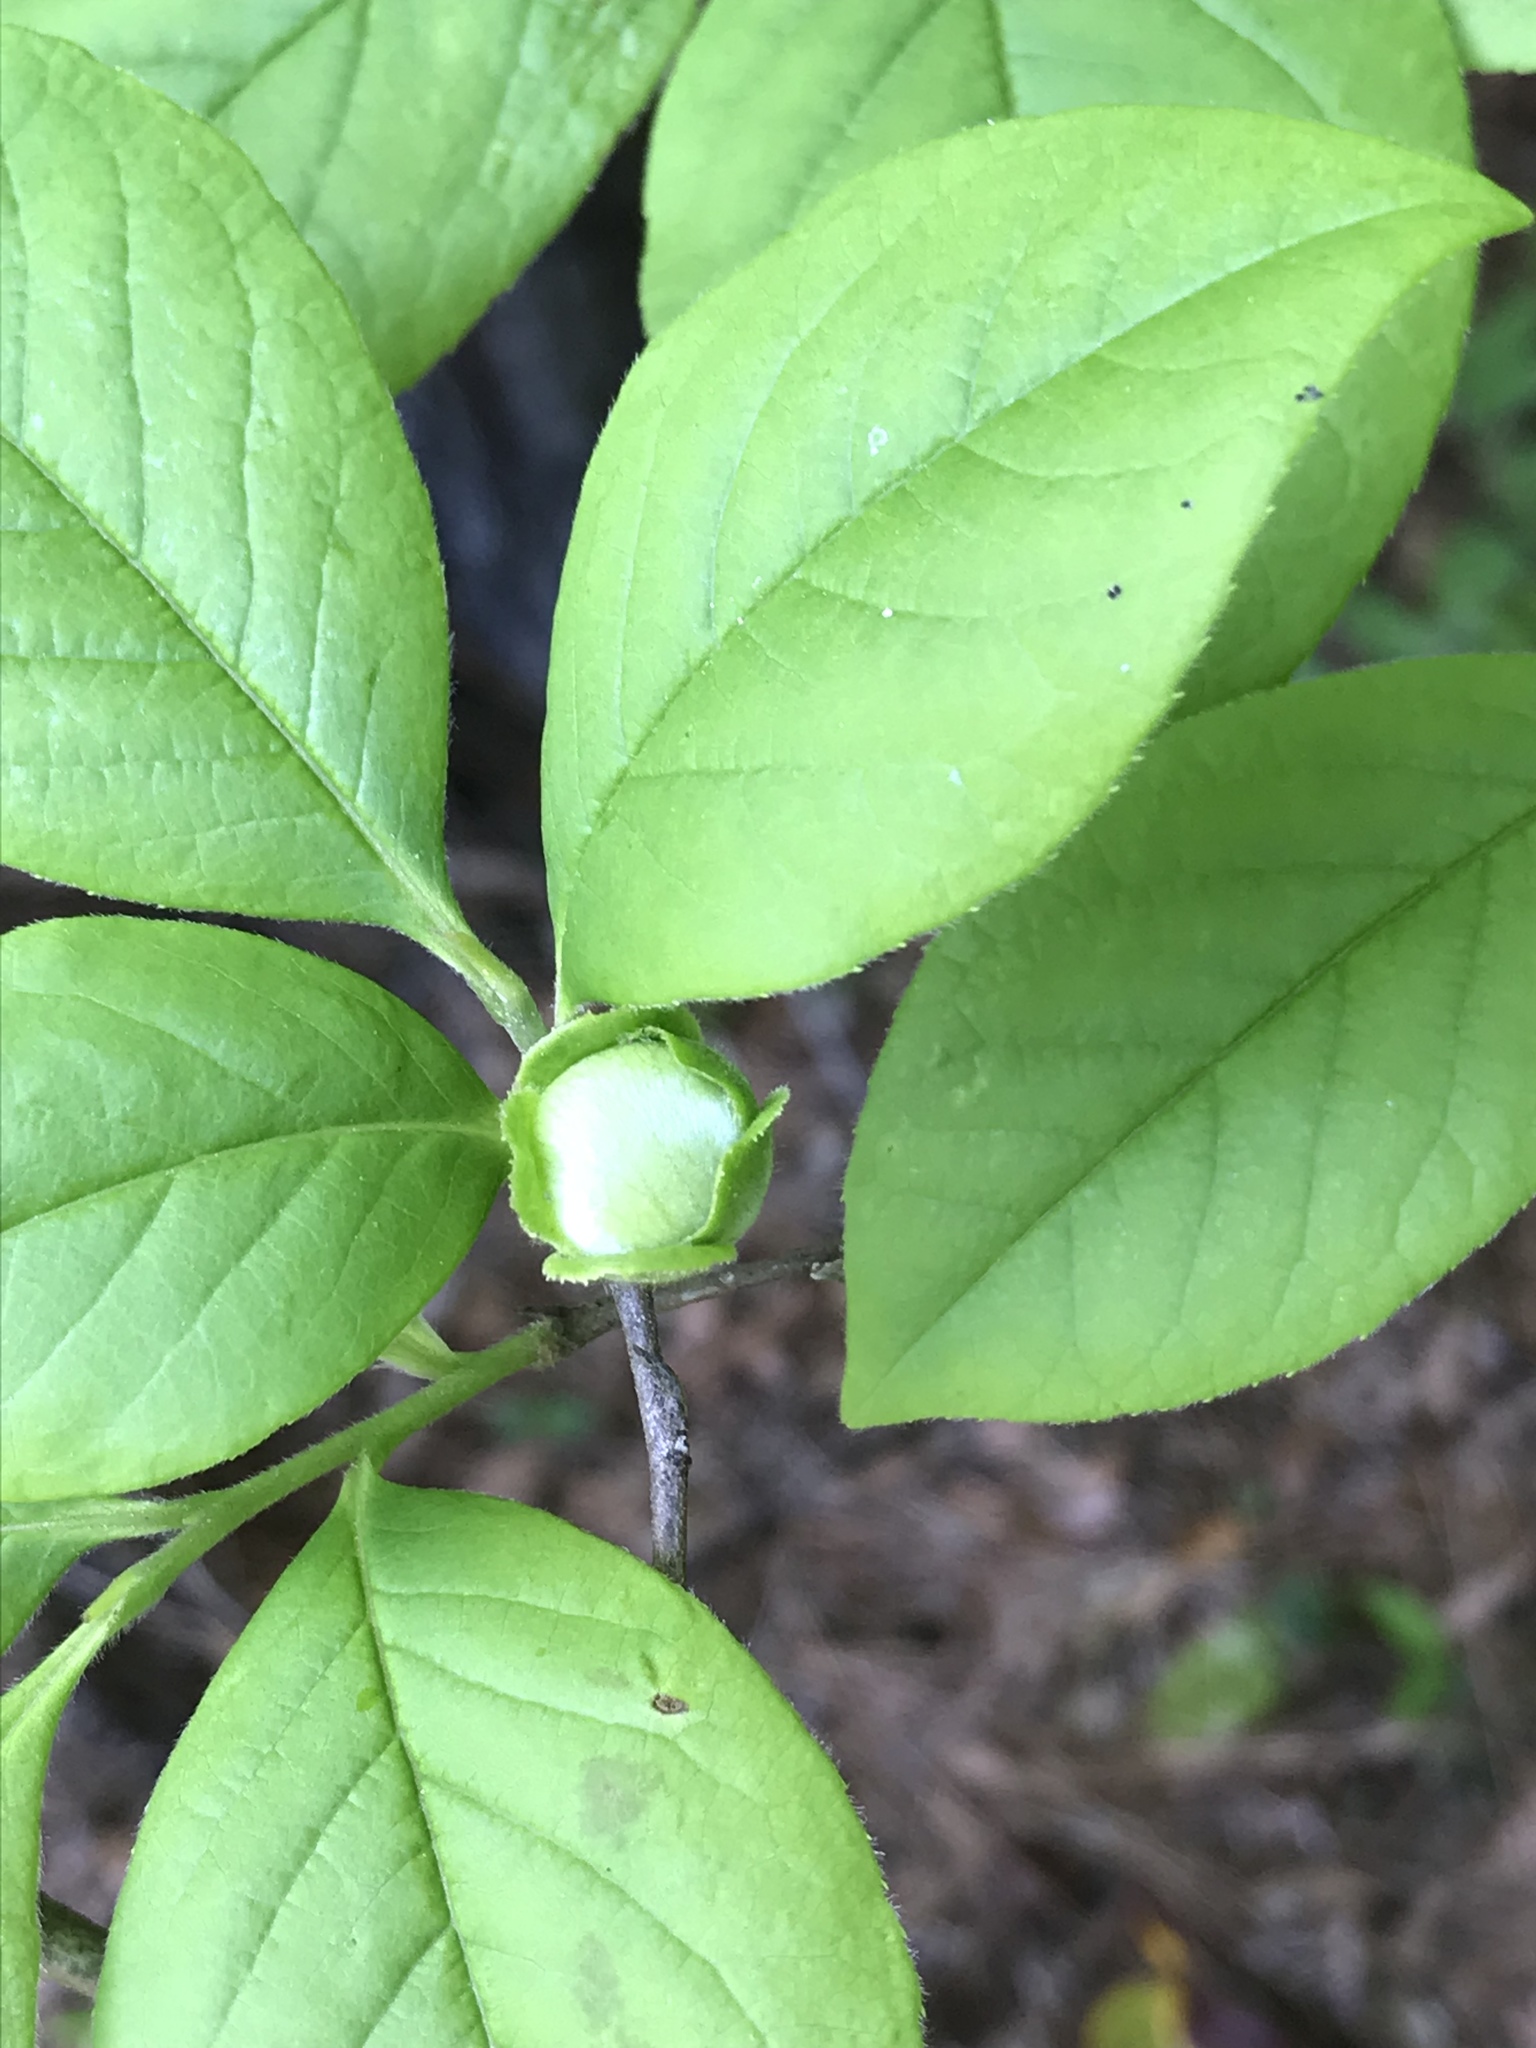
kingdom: Plantae
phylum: Tracheophyta
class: Magnoliopsida
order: Ericales
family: Theaceae
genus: Stewartia
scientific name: Stewartia malacodendron
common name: Virginia stewartia
